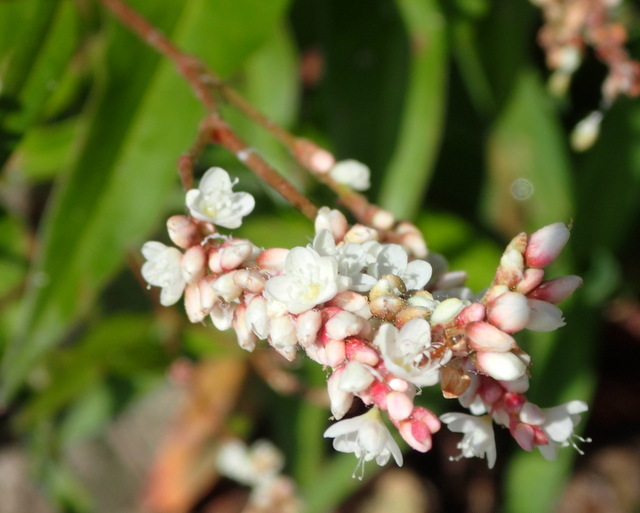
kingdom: Plantae
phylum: Tracheophyta
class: Magnoliopsida
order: Caryophyllales
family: Polygonaceae
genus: Persicaria
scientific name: Persicaria hydropiperoides
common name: Swamp smartweed
